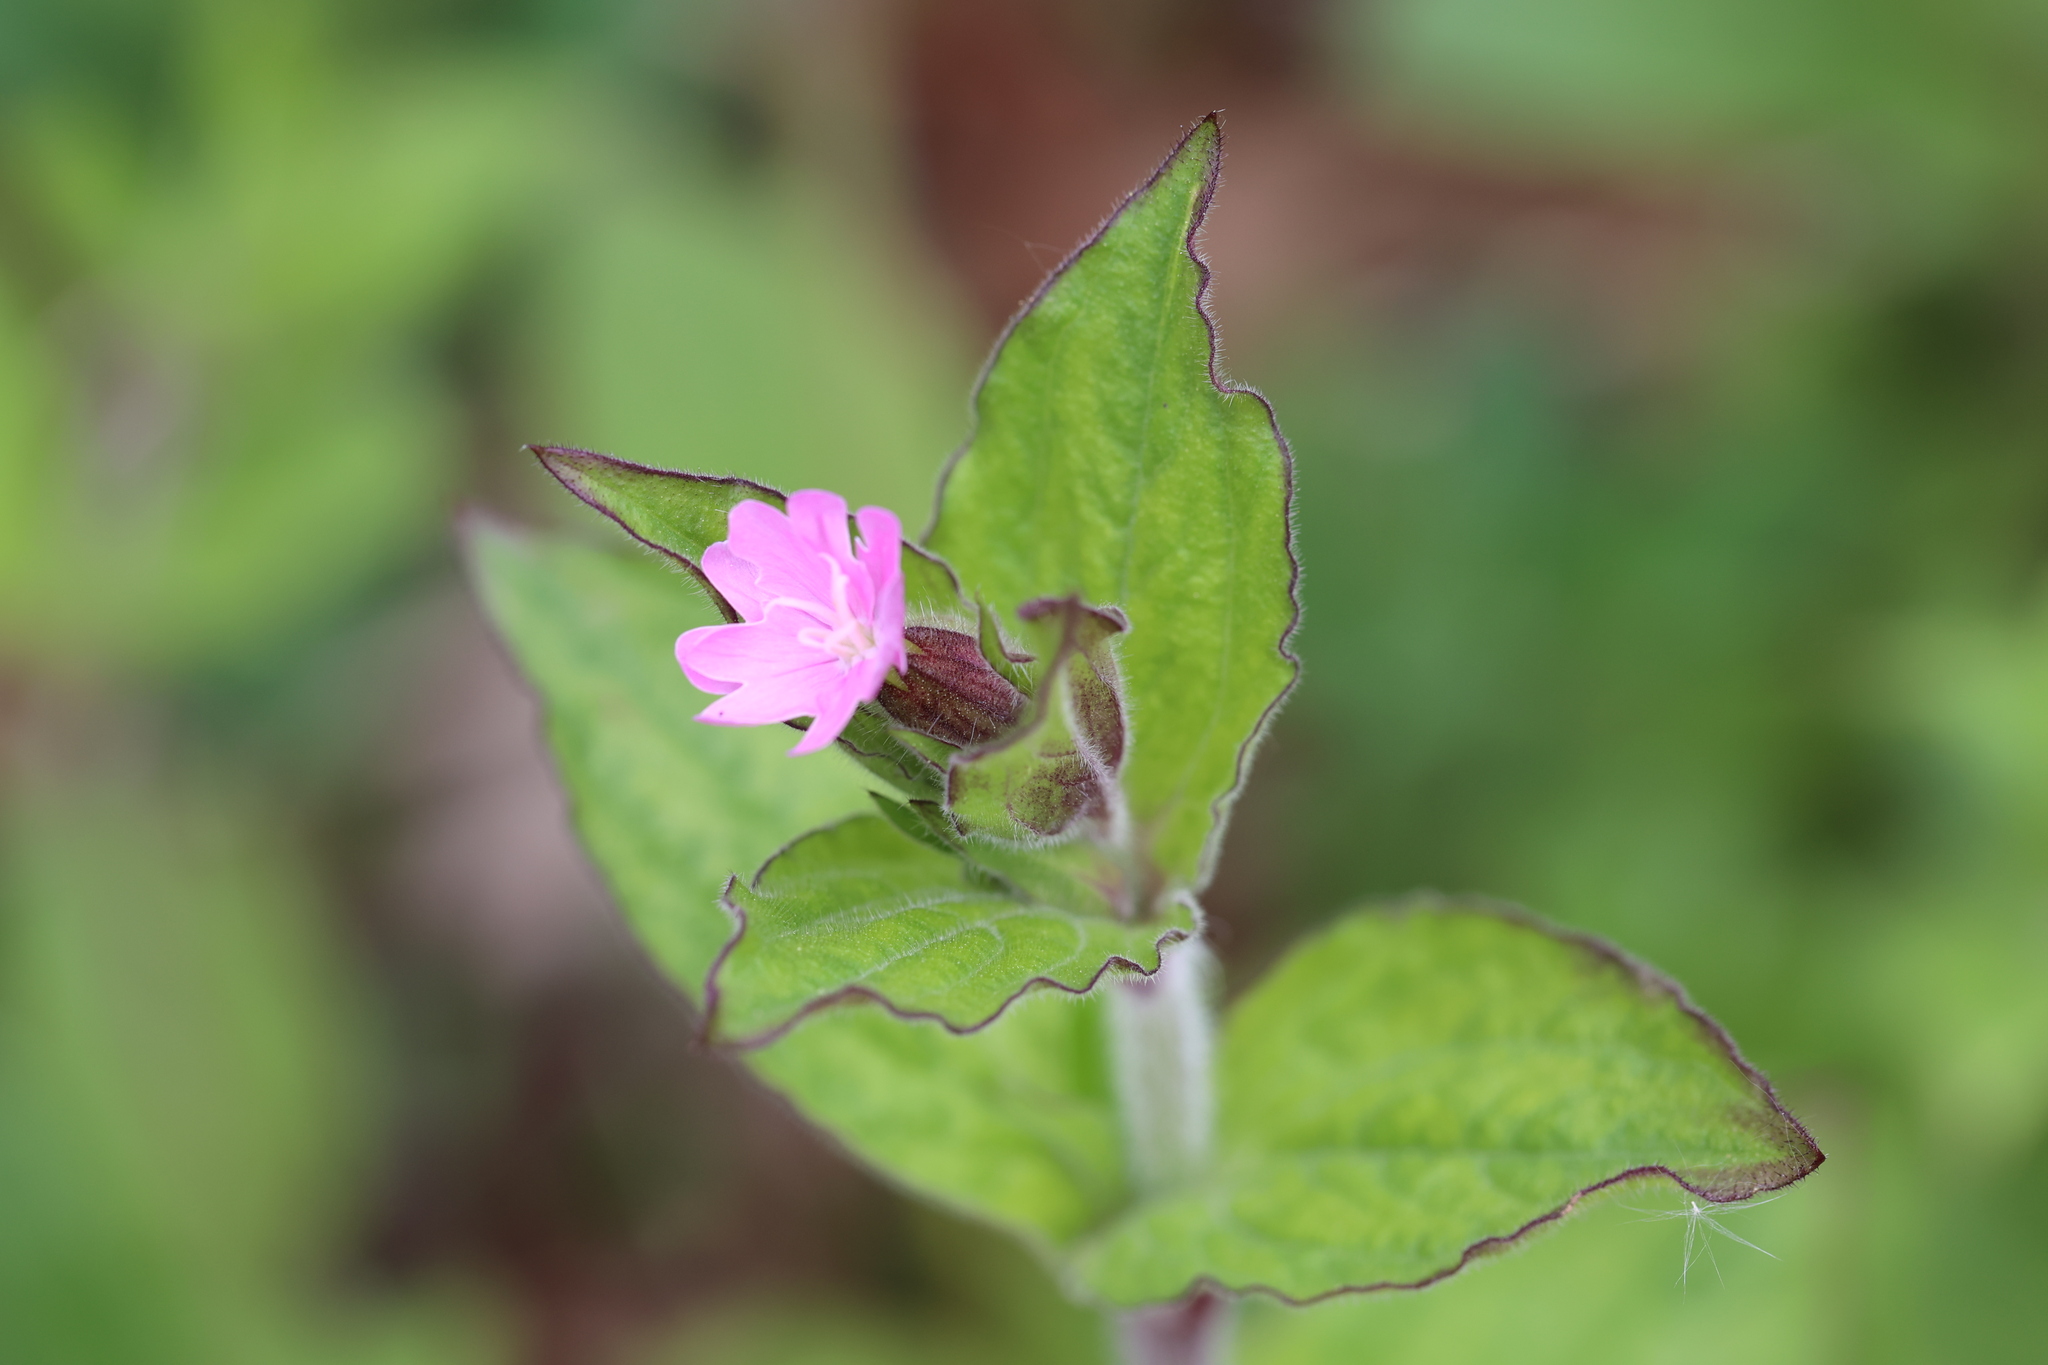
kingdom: Plantae
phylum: Tracheophyta
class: Magnoliopsida
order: Caryophyllales
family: Caryophyllaceae
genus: Silene
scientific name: Silene dioica
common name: Red campion
